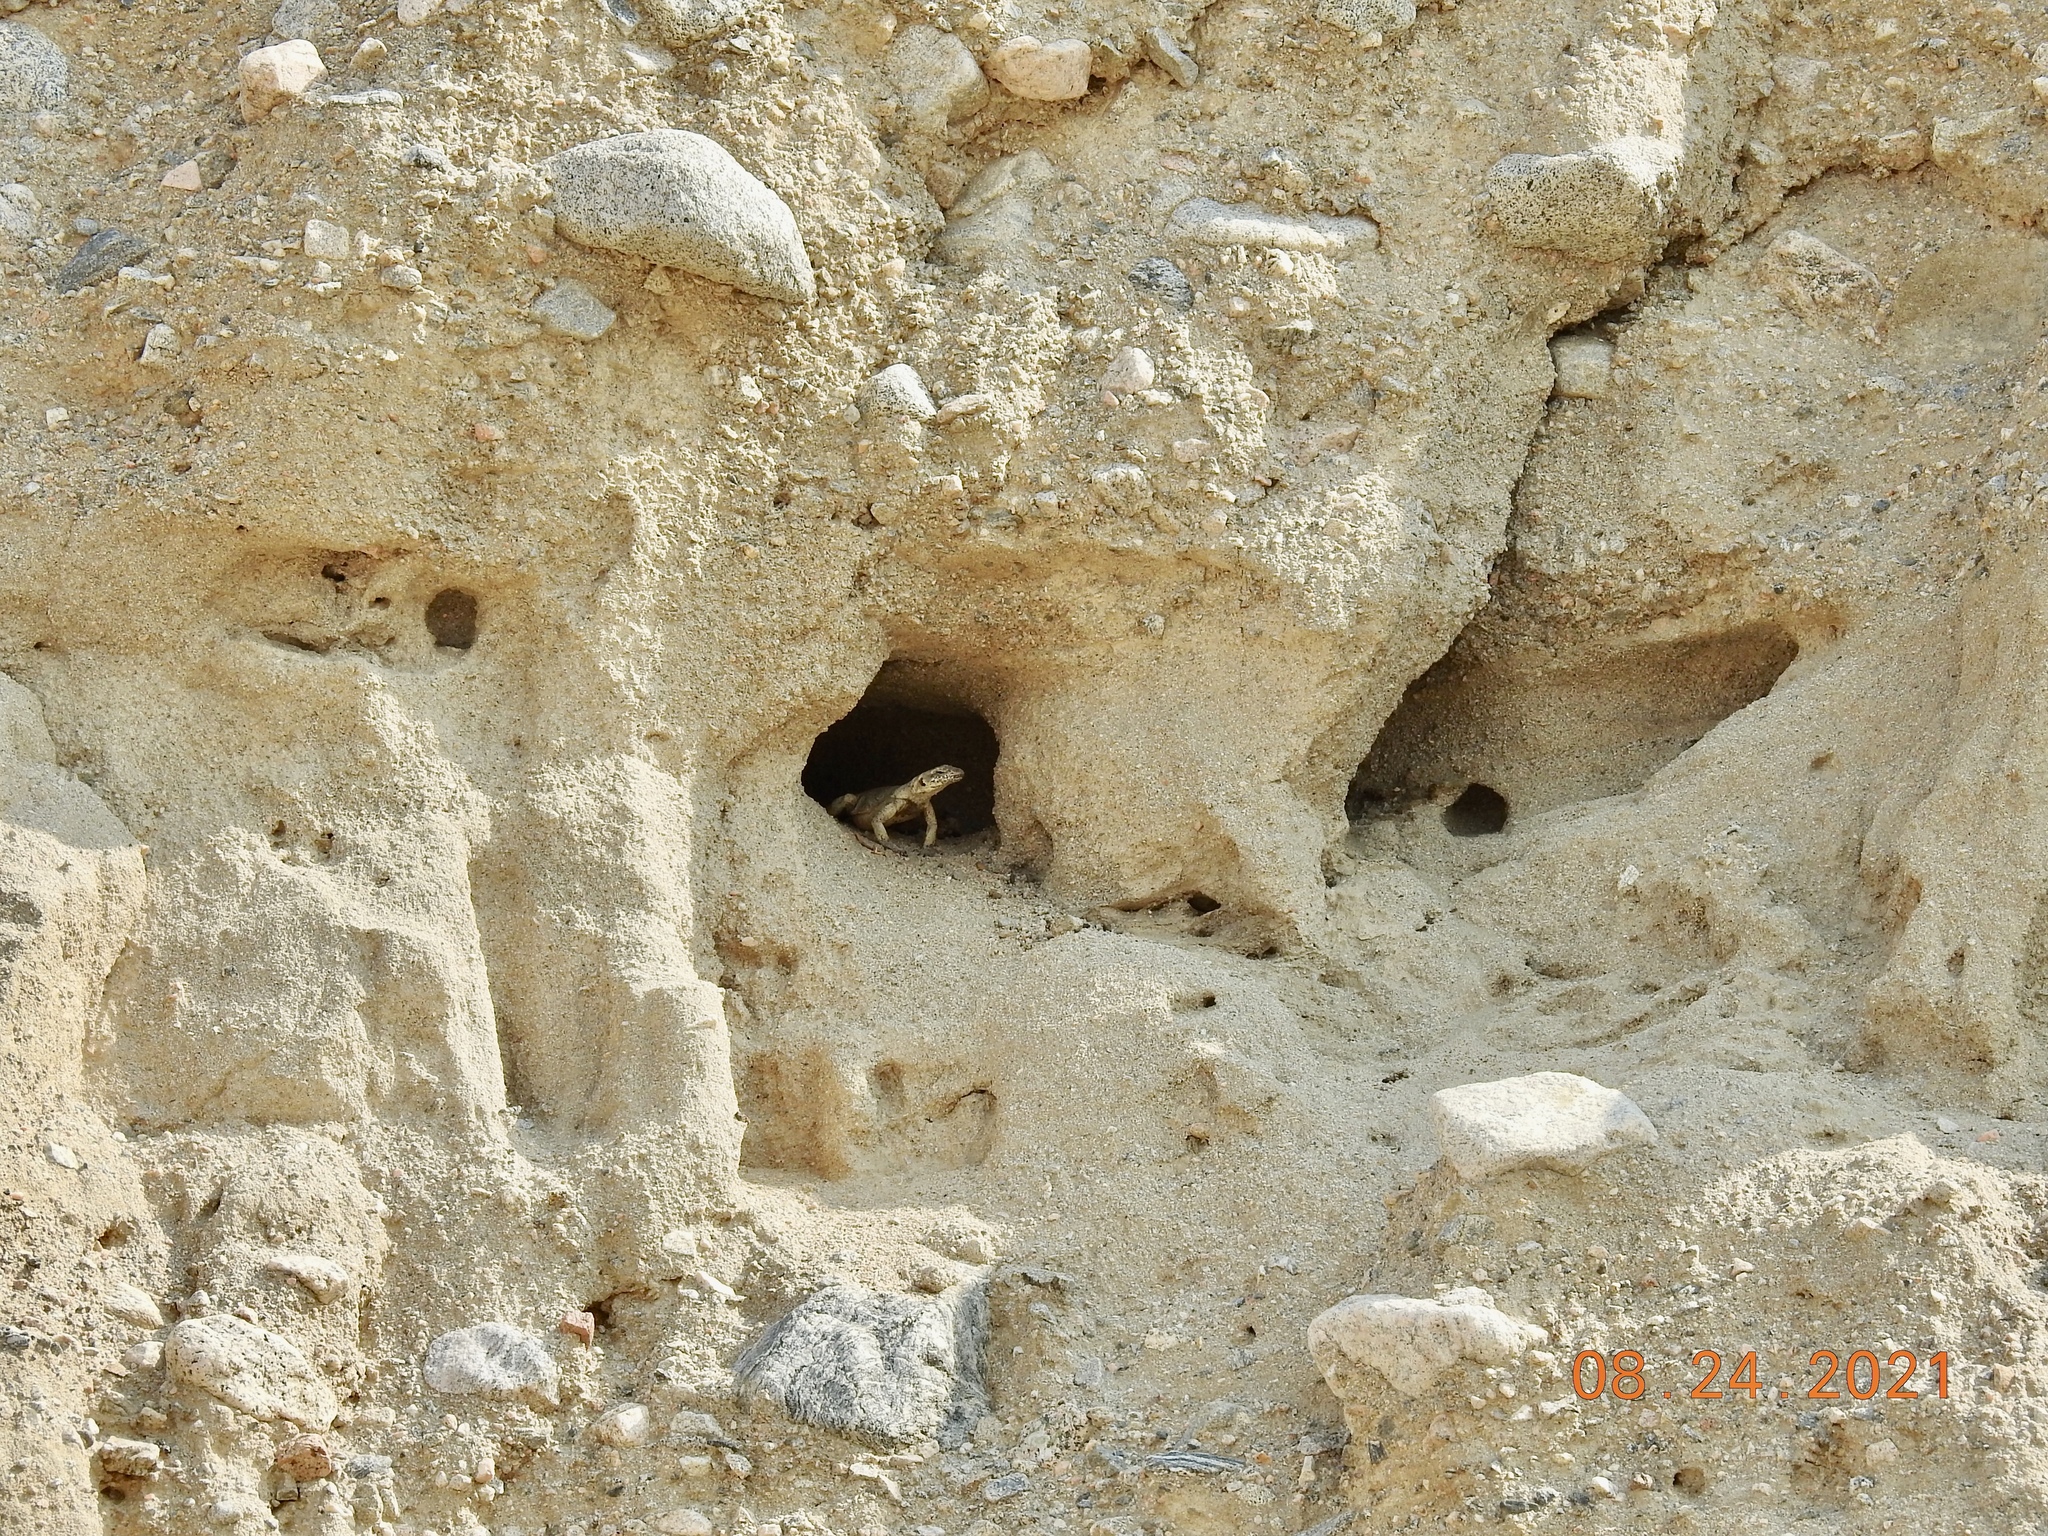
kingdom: Animalia
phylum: Chordata
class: Squamata
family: Iguanidae
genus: Sauromalus
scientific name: Sauromalus ater
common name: Northern chuckwalla
